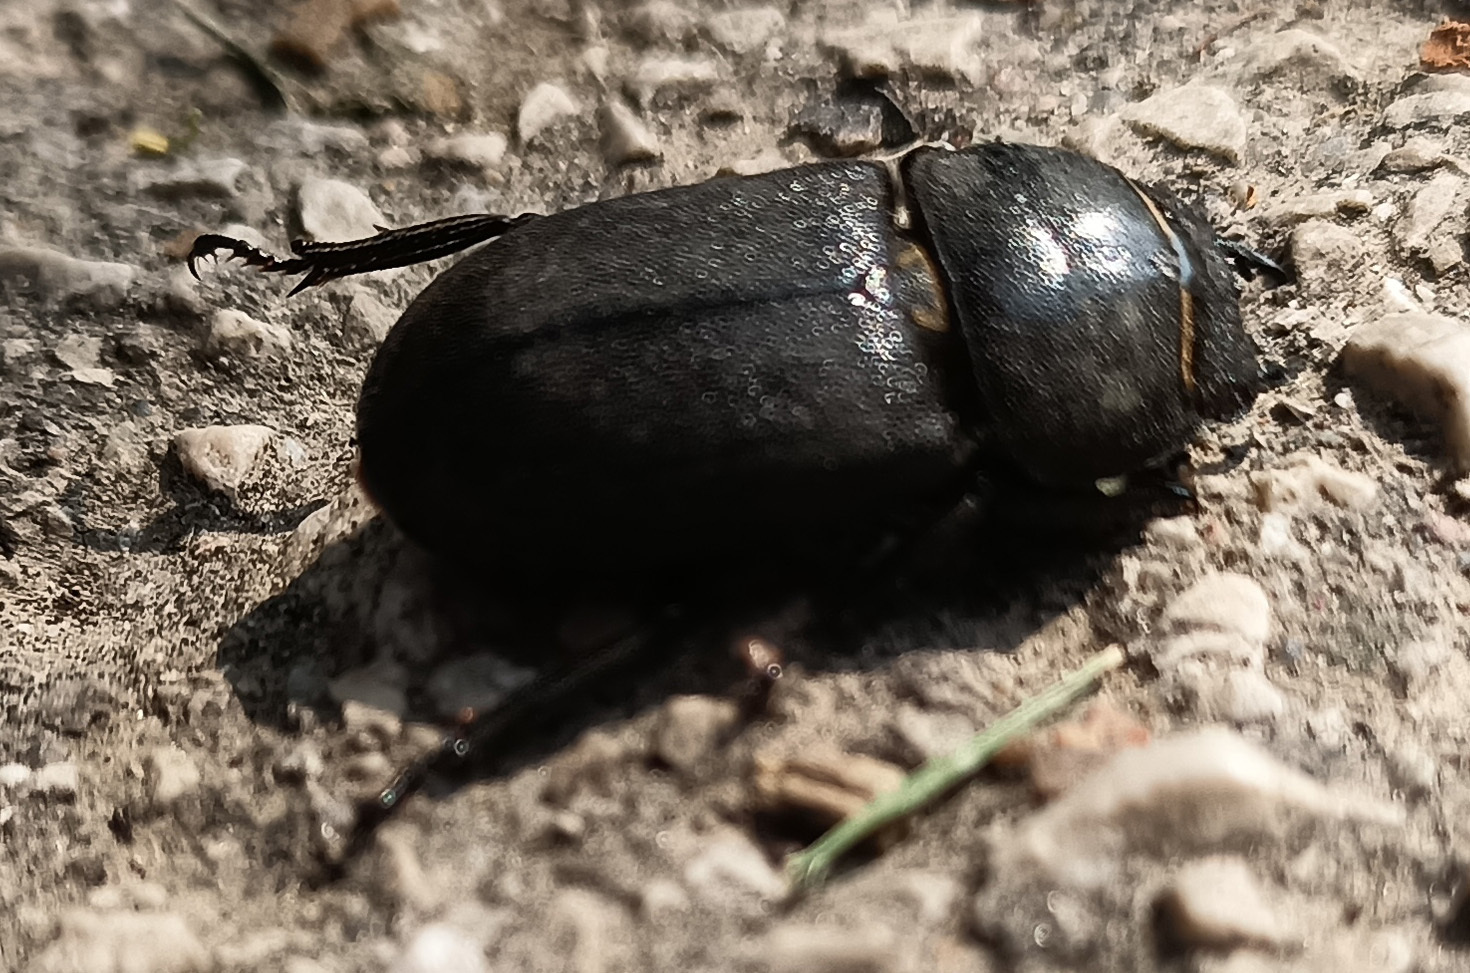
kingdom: Animalia
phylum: Arthropoda
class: Insecta
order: Coleoptera
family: Lucanidae
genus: Dorcus
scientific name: Dorcus parallelipipedus
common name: Lesser stag beetle
